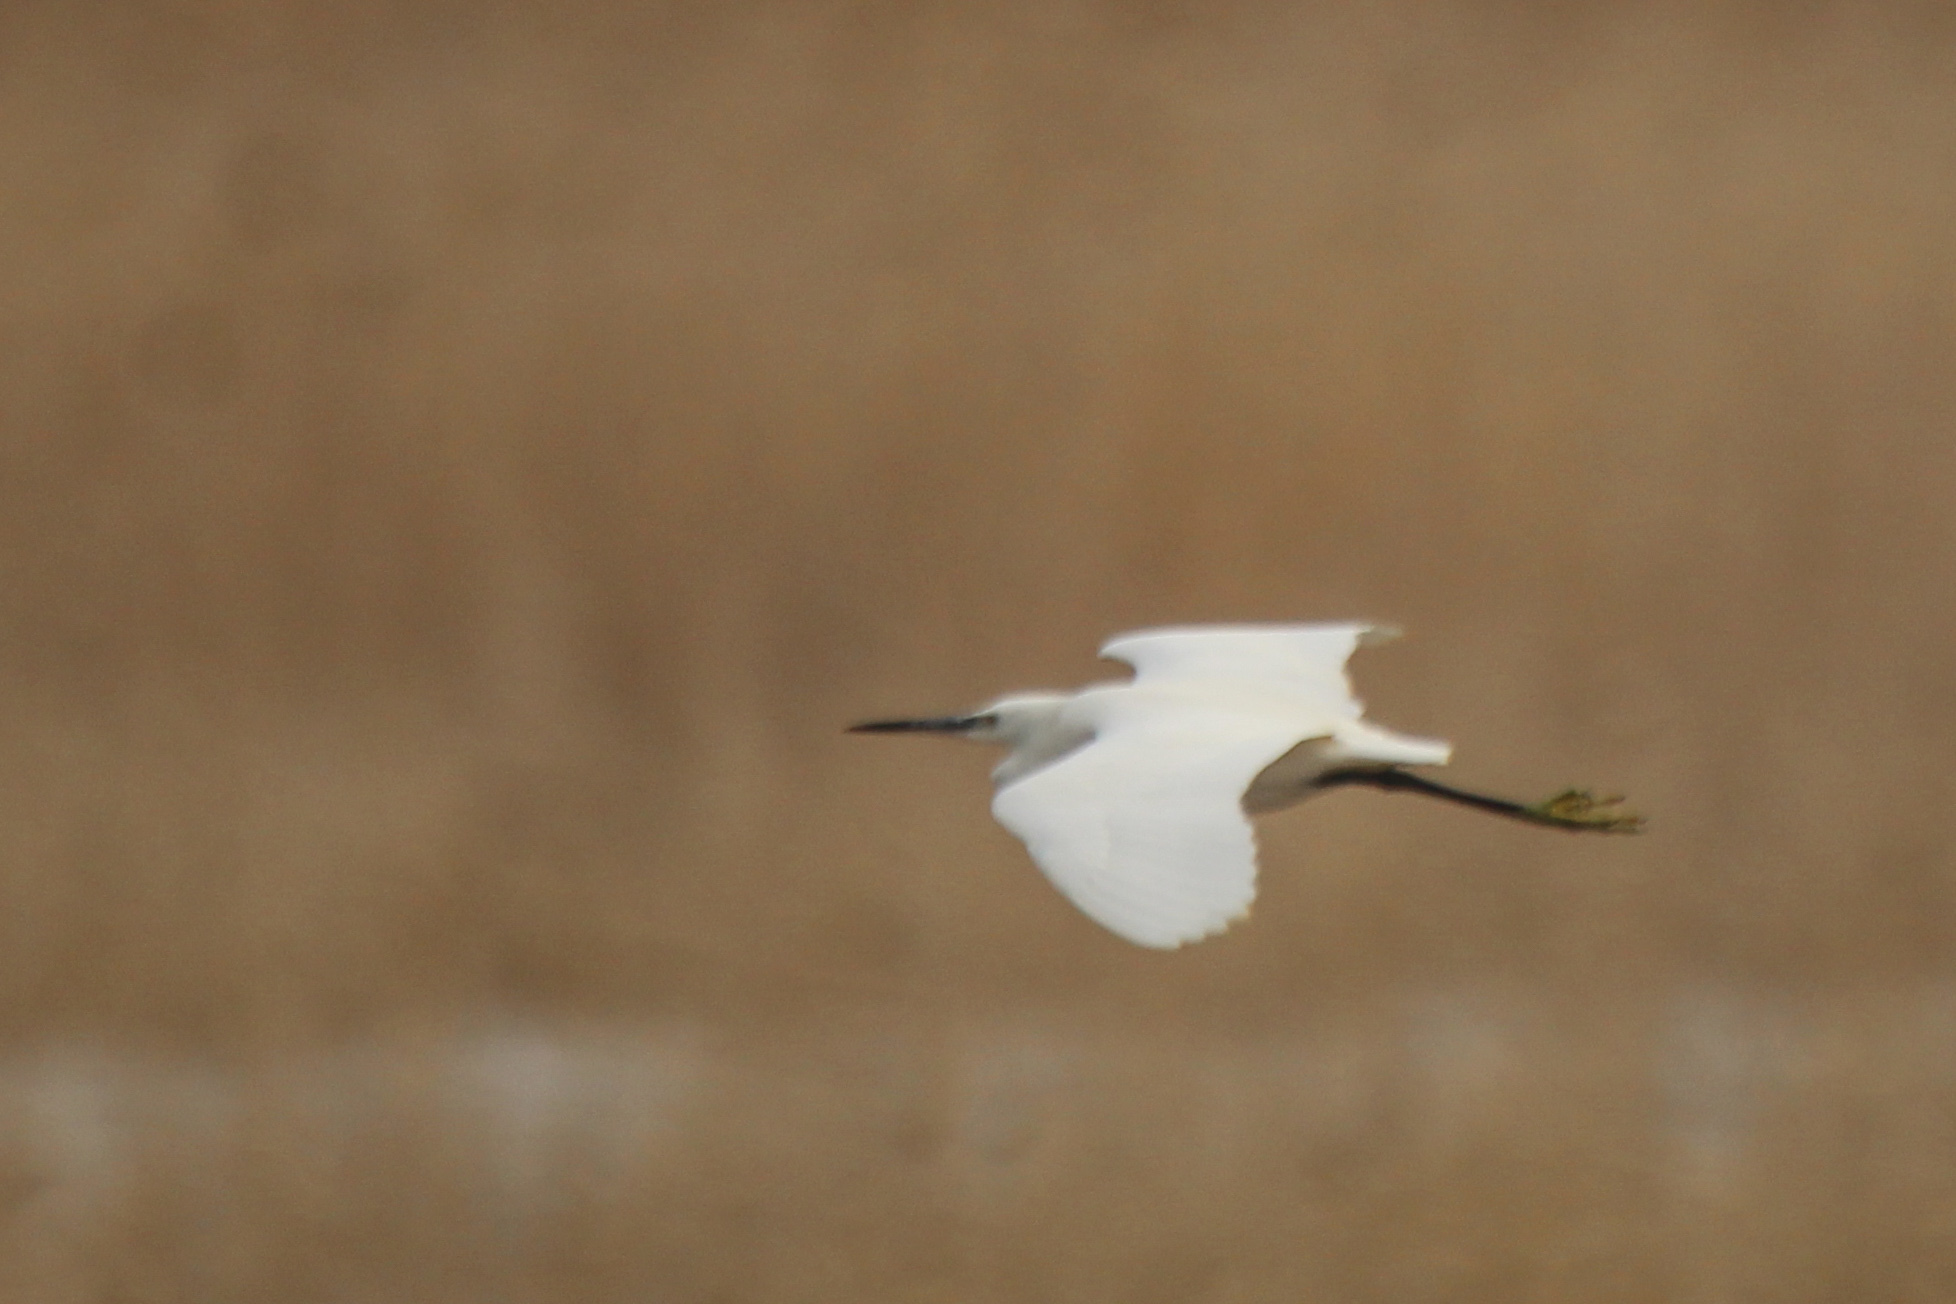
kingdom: Animalia
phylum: Chordata
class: Aves
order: Pelecaniformes
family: Ardeidae
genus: Egretta
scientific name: Egretta garzetta
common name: Little egret
